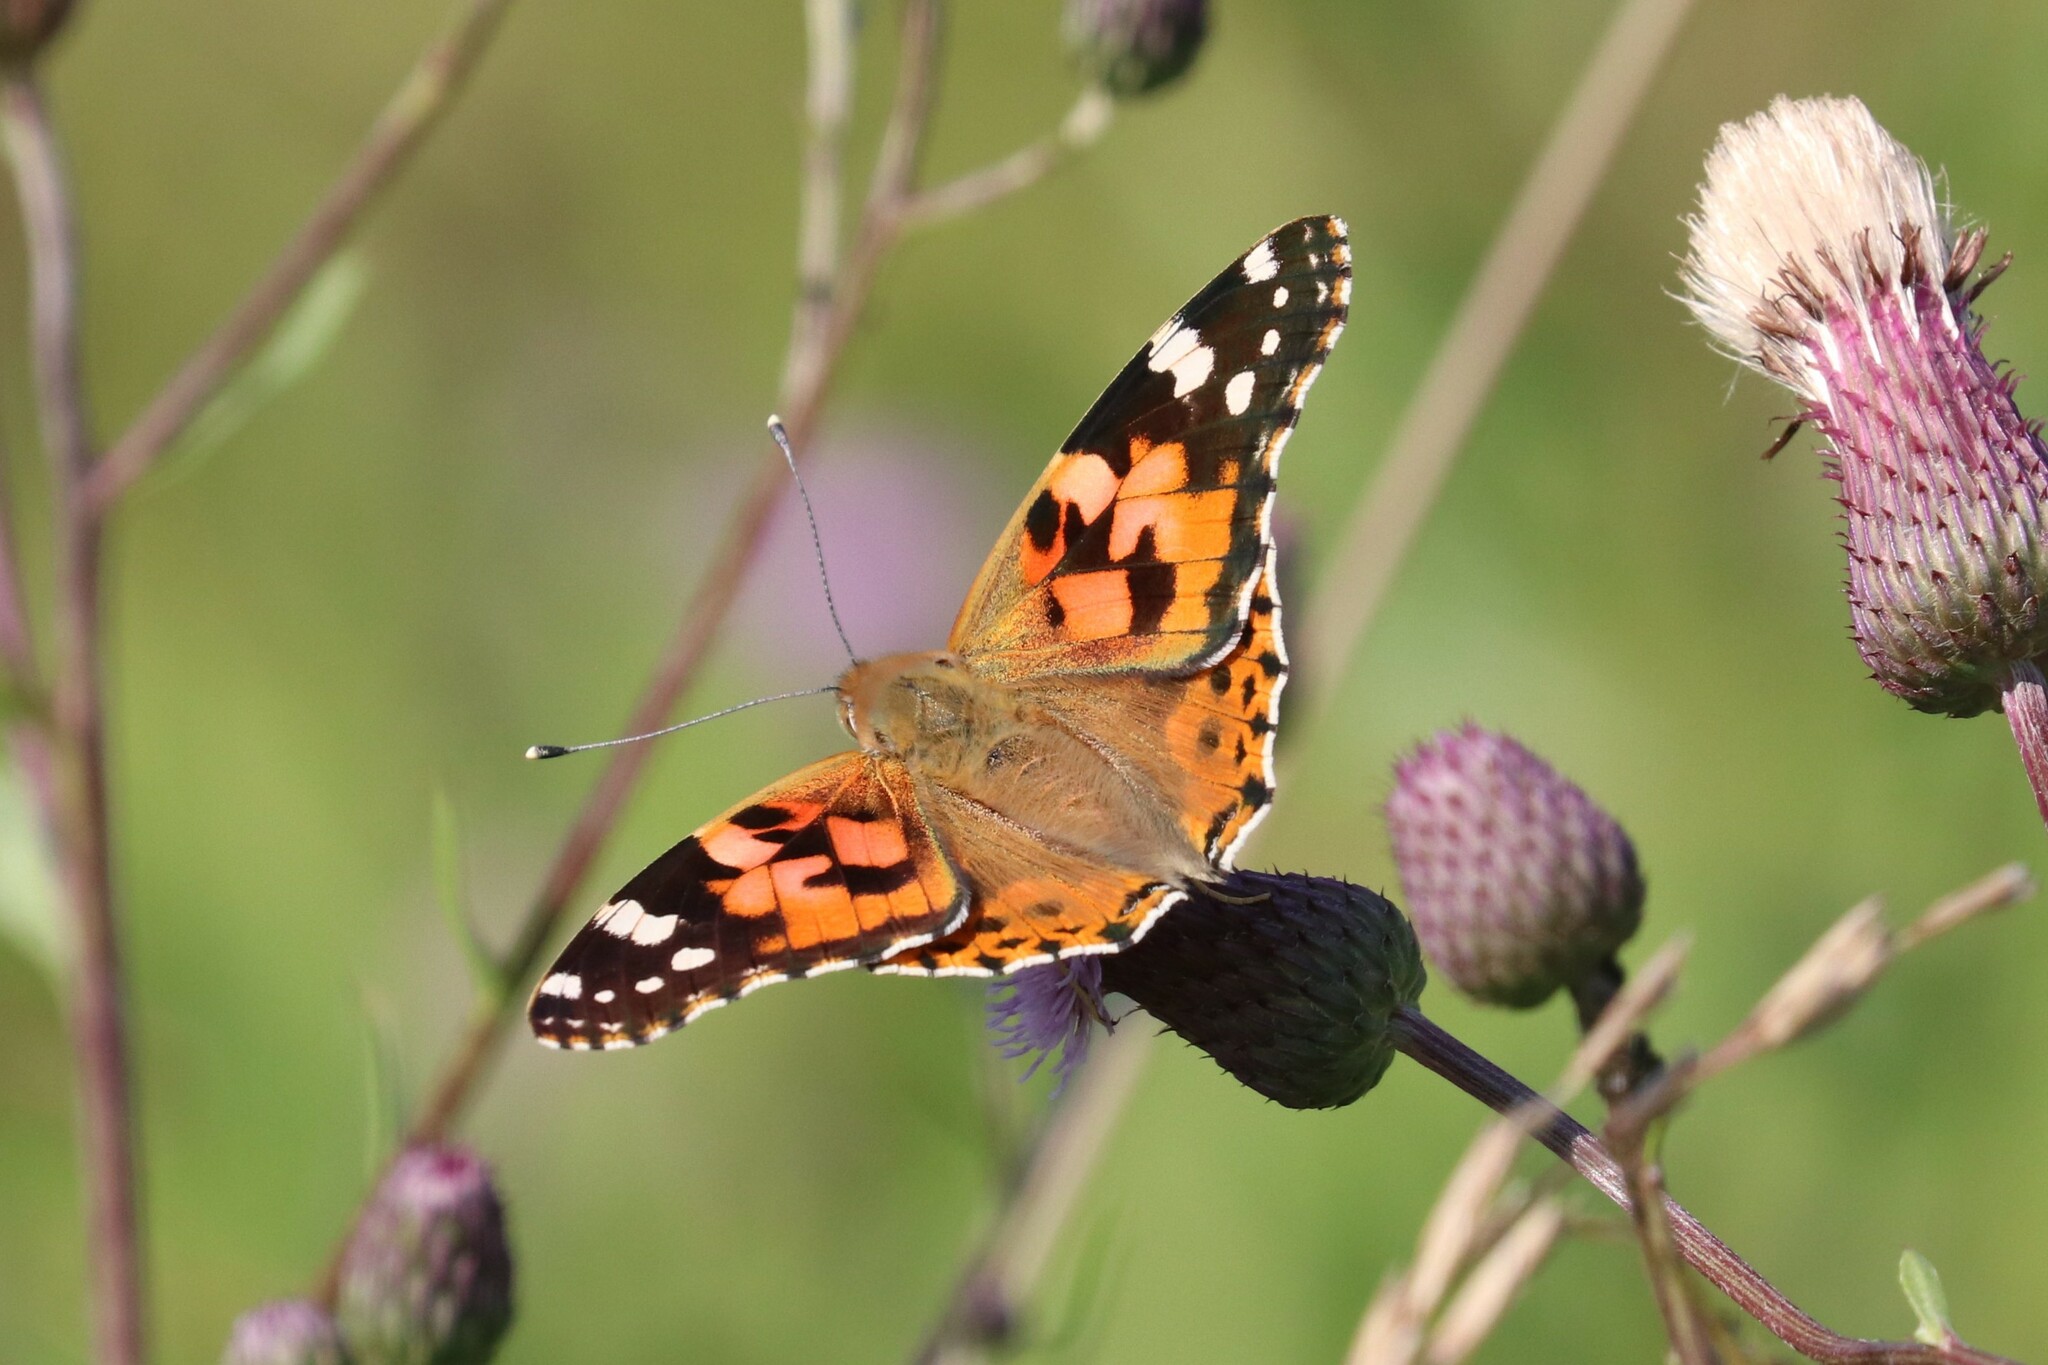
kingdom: Animalia
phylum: Arthropoda
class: Insecta
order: Lepidoptera
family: Nymphalidae
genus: Vanessa
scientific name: Vanessa cardui
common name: Painted lady
